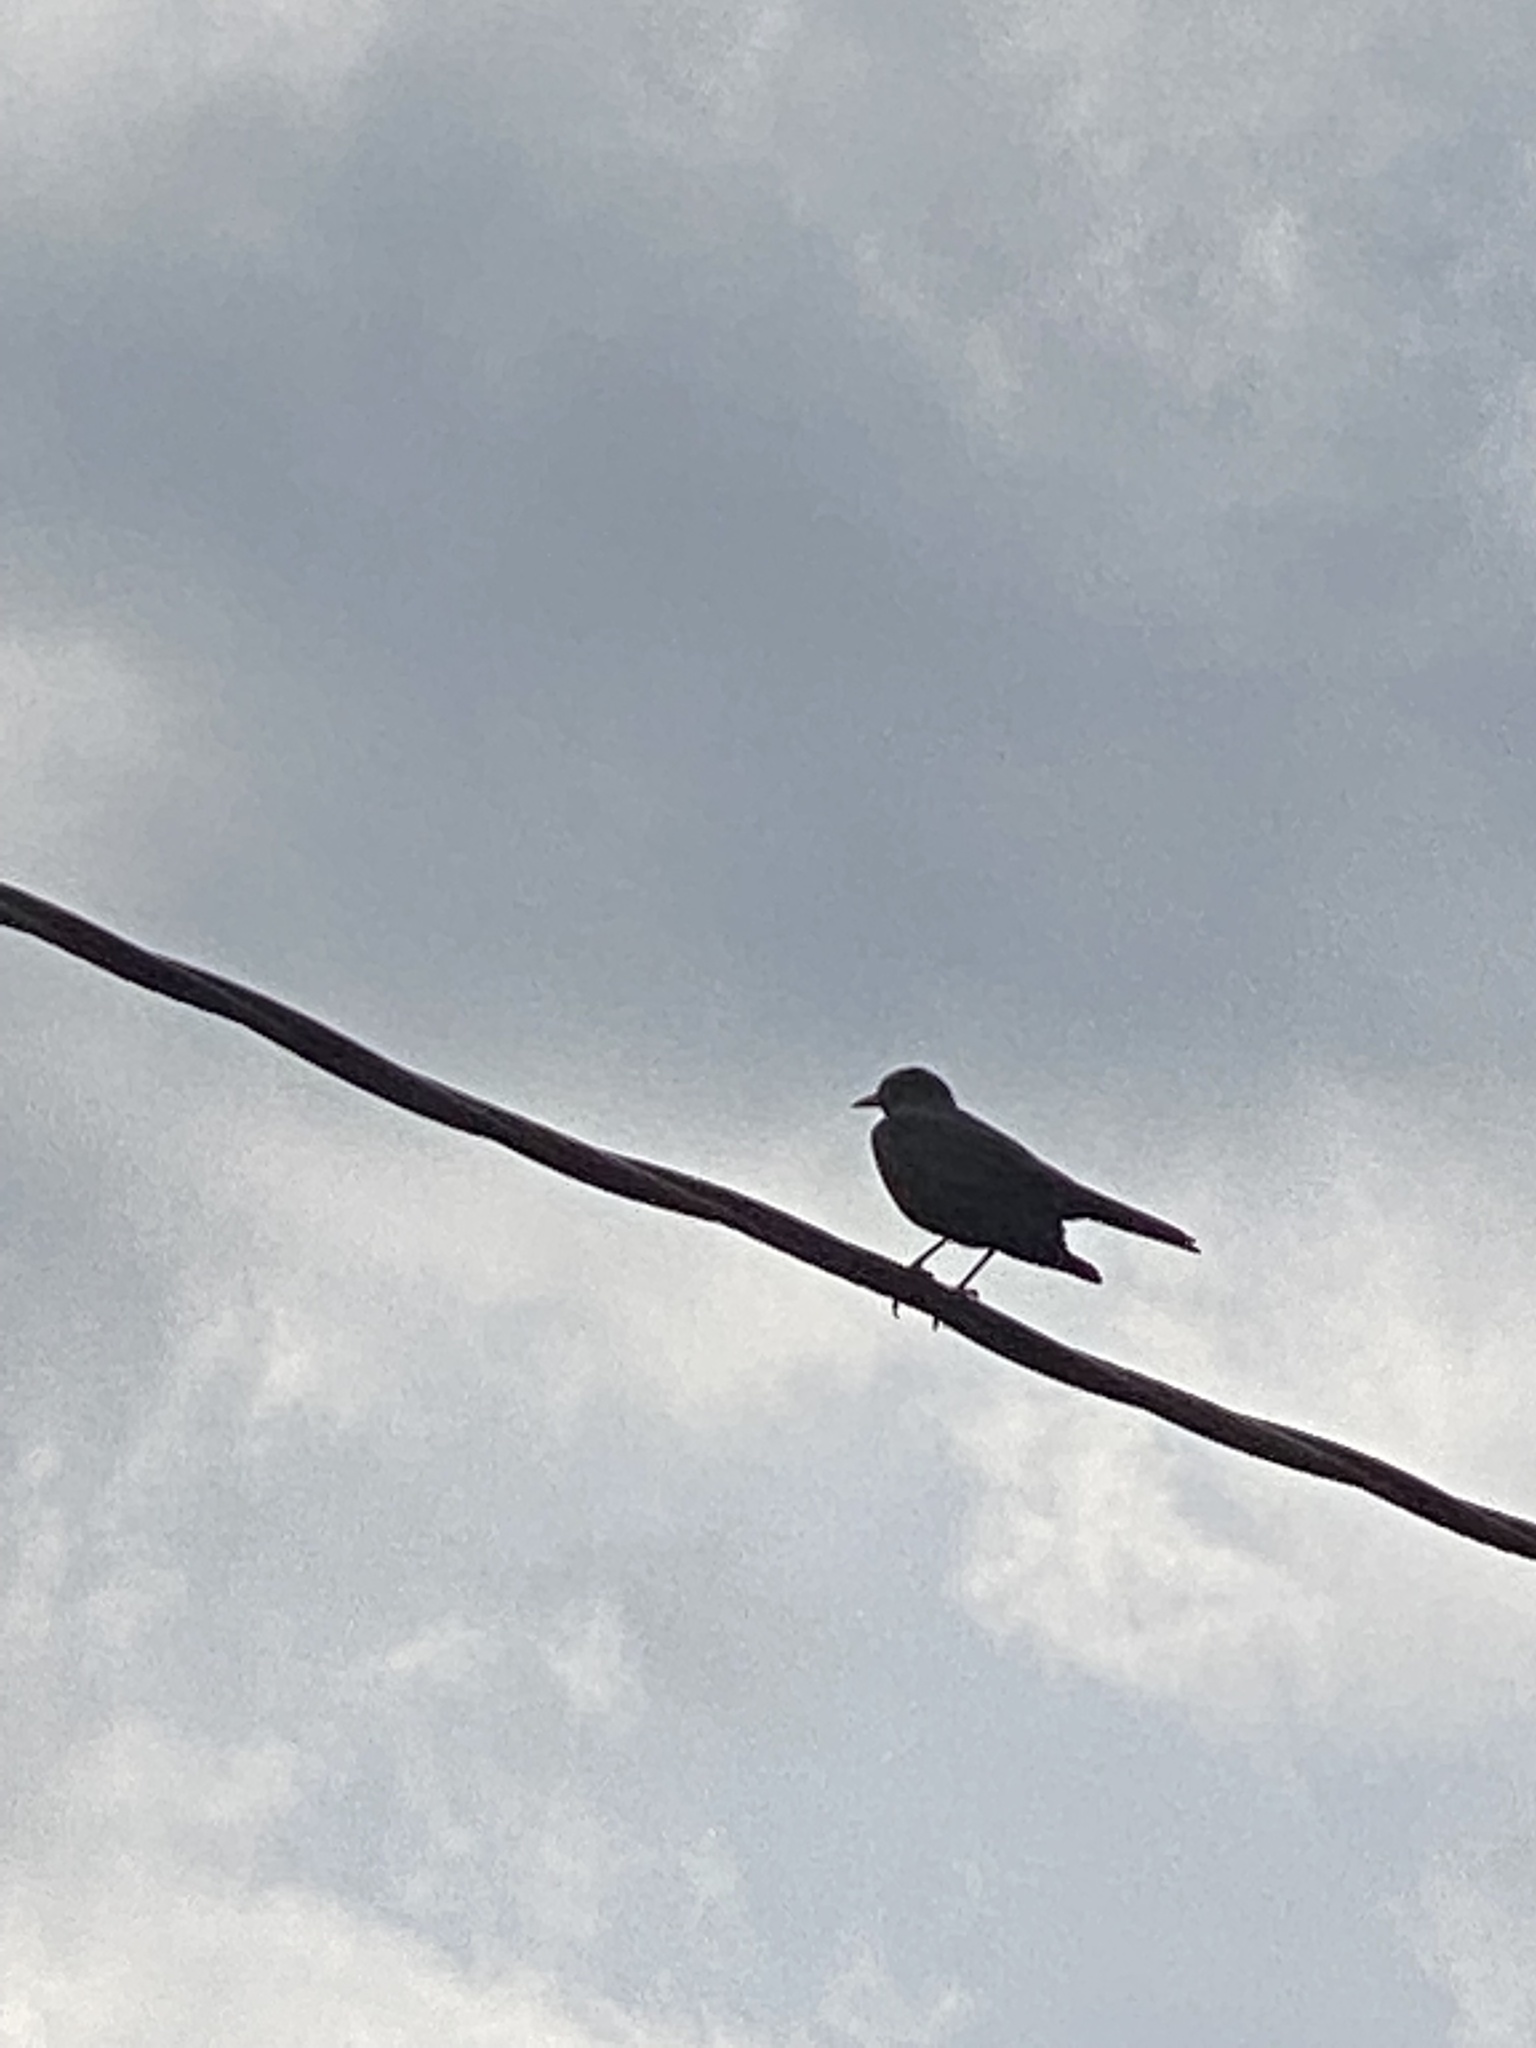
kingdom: Animalia
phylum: Chordata
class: Aves
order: Passeriformes
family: Mimidae
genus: Dumetella
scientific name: Dumetella carolinensis
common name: Gray catbird
